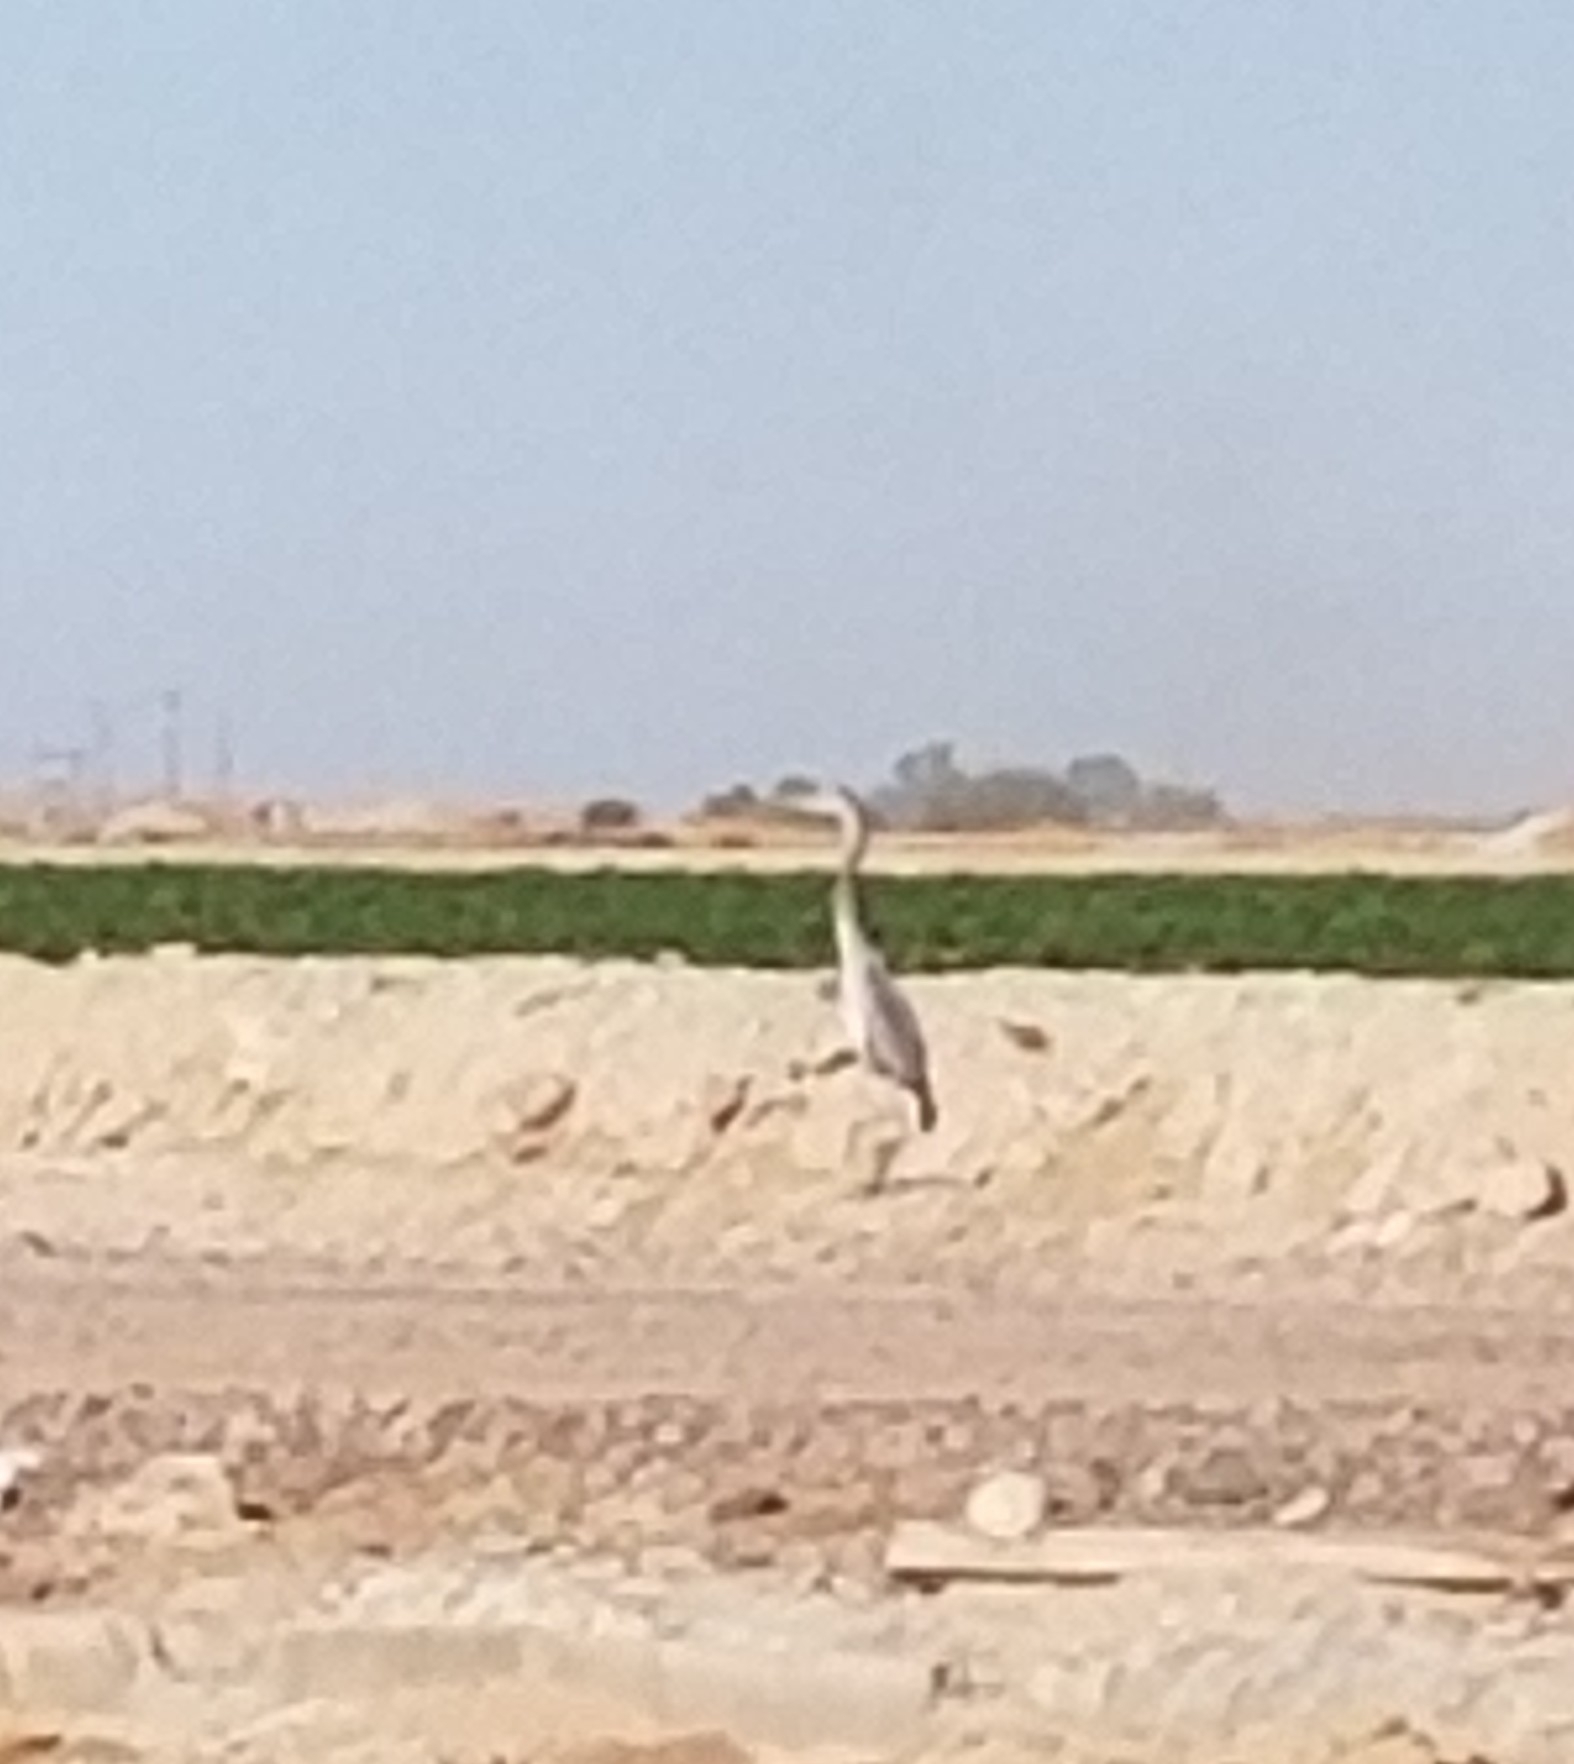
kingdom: Animalia
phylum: Chordata
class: Aves
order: Pelecaniformes
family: Ardeidae
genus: Ardea
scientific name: Ardea herodias
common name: Great blue heron
